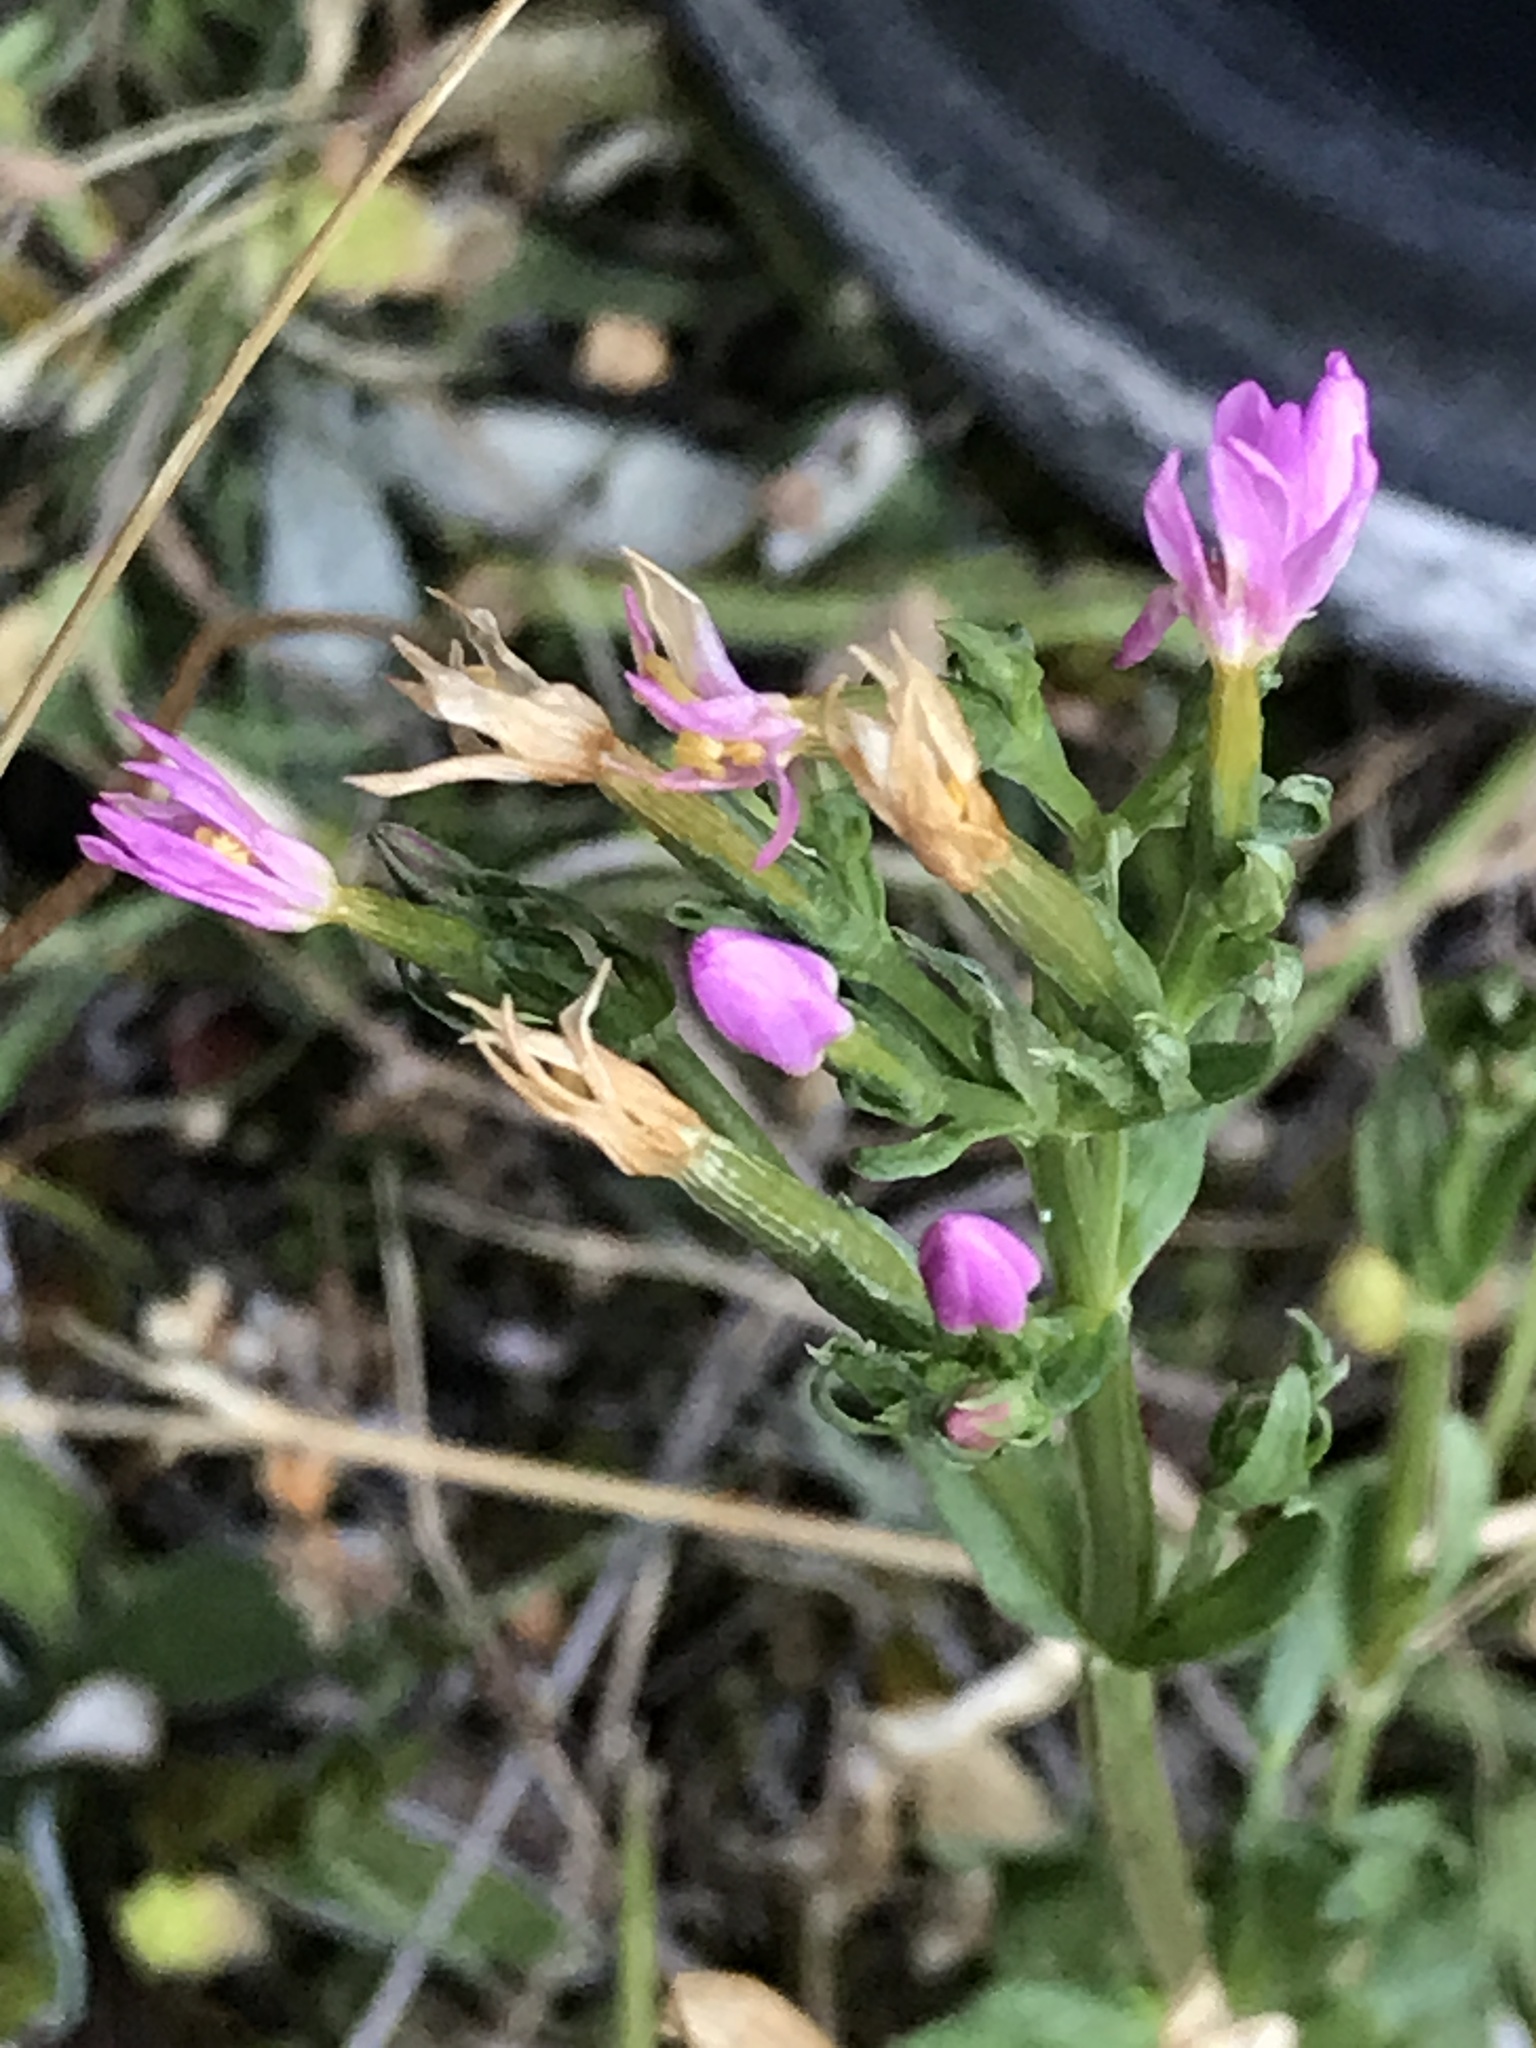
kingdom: Plantae
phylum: Tracheophyta
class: Magnoliopsida
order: Gentianales
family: Gentianaceae
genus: Centaurium
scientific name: Centaurium erythraea
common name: Common centaury
